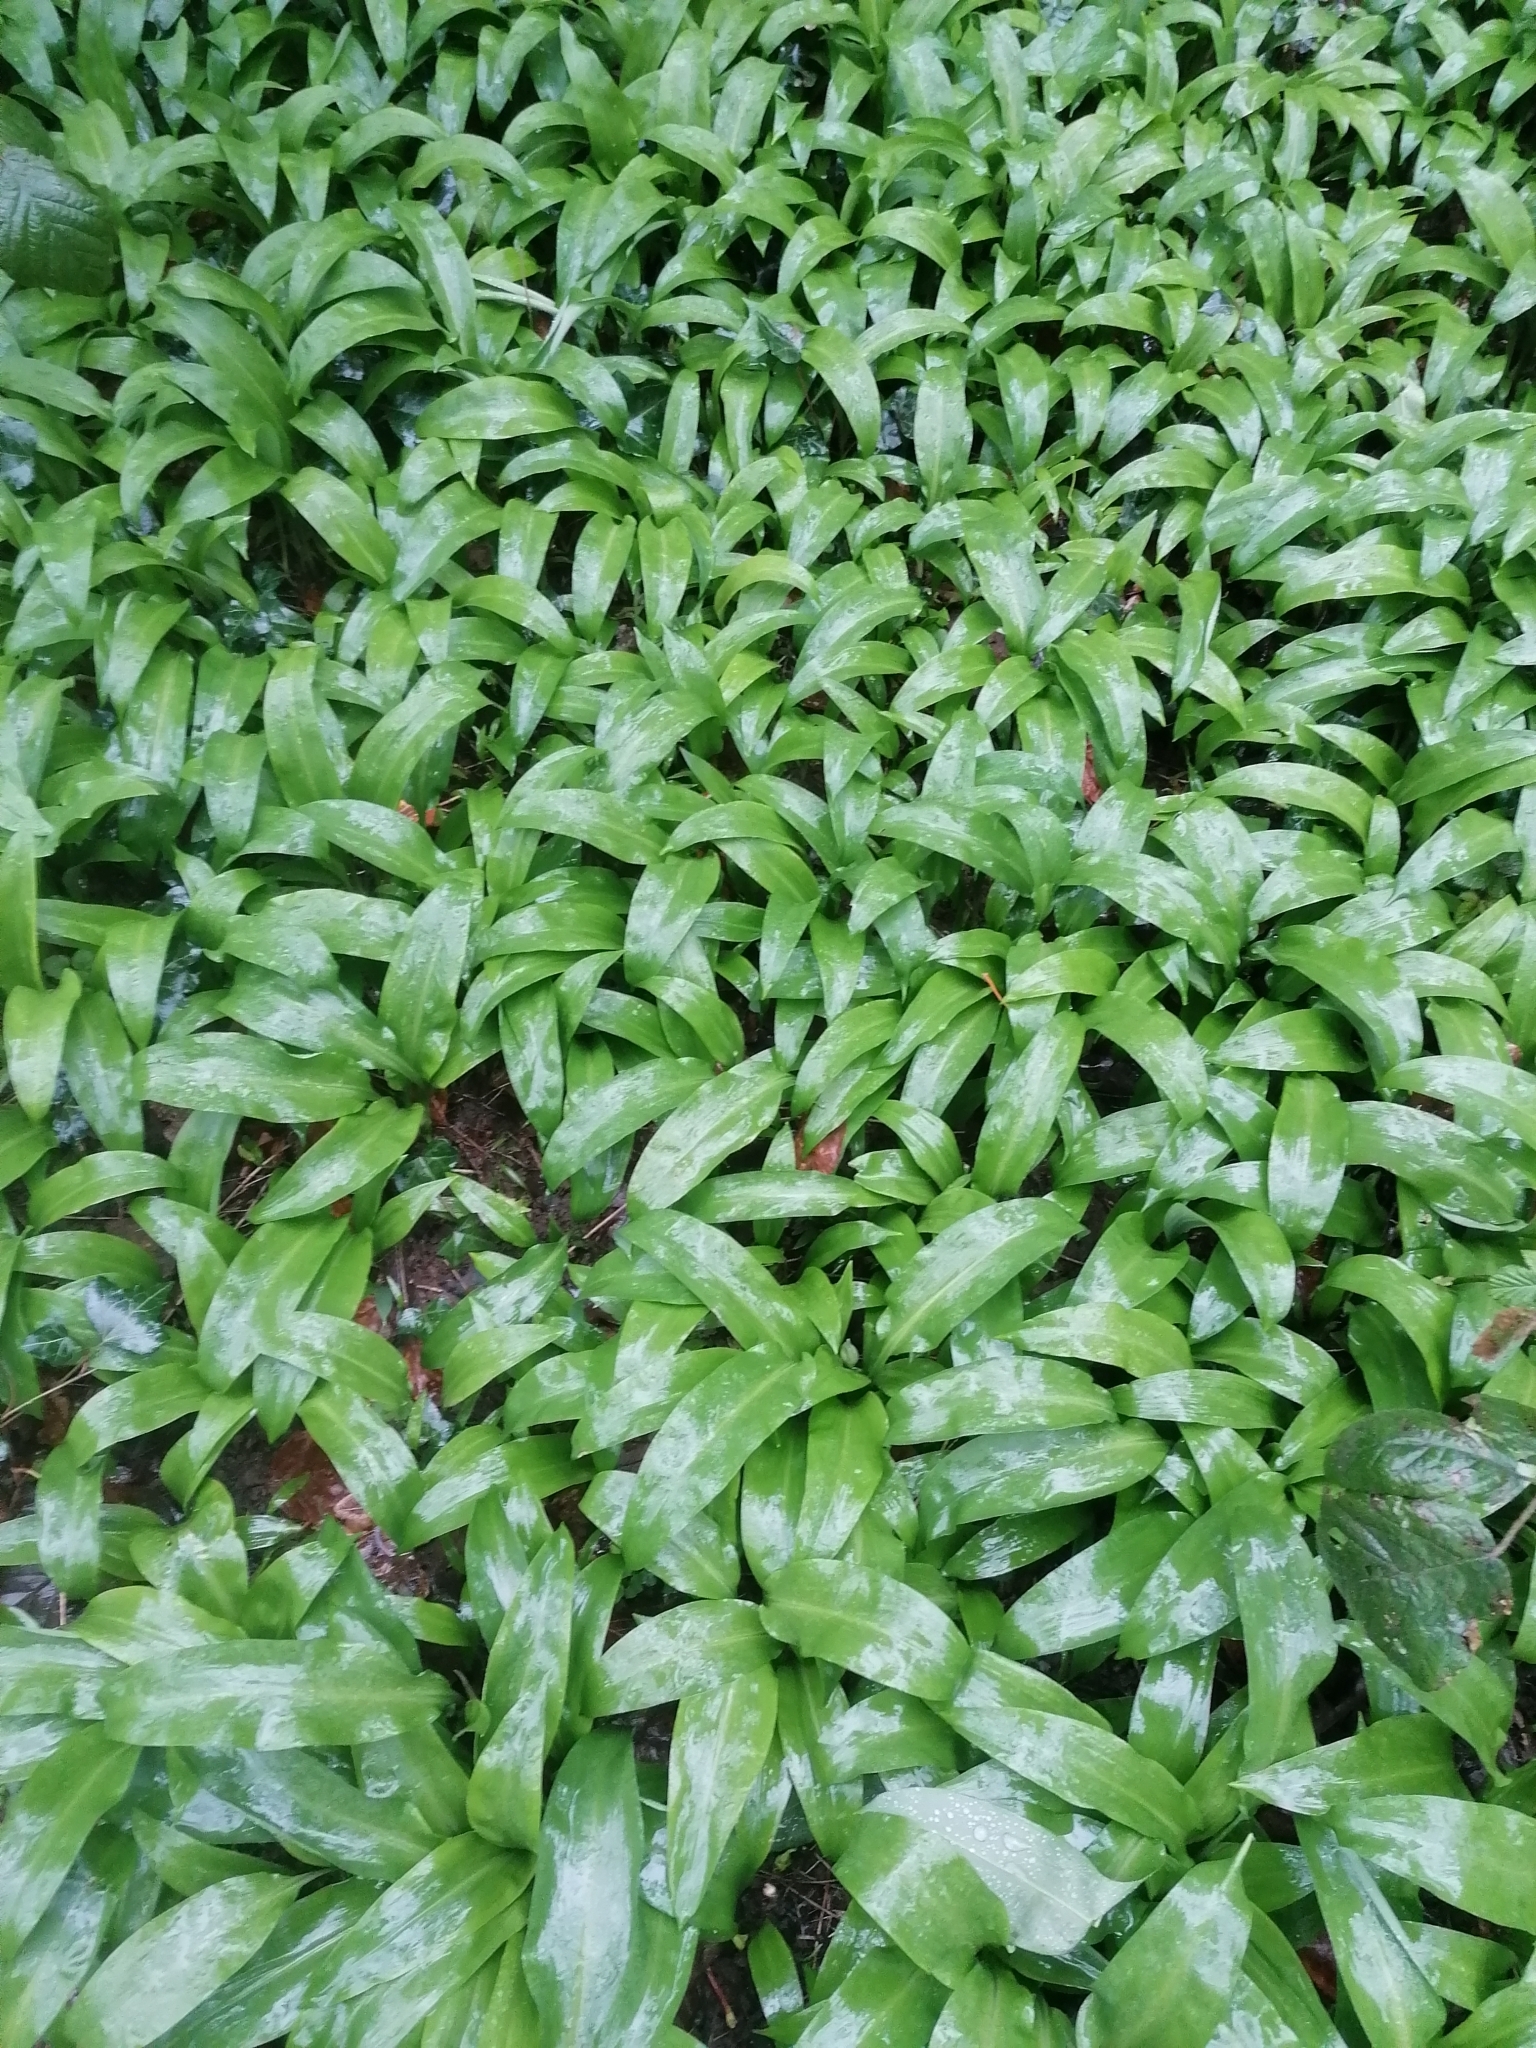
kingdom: Plantae
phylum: Tracheophyta
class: Liliopsida
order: Asparagales
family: Amaryllidaceae
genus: Allium
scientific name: Allium ursinum
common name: Ramsons
